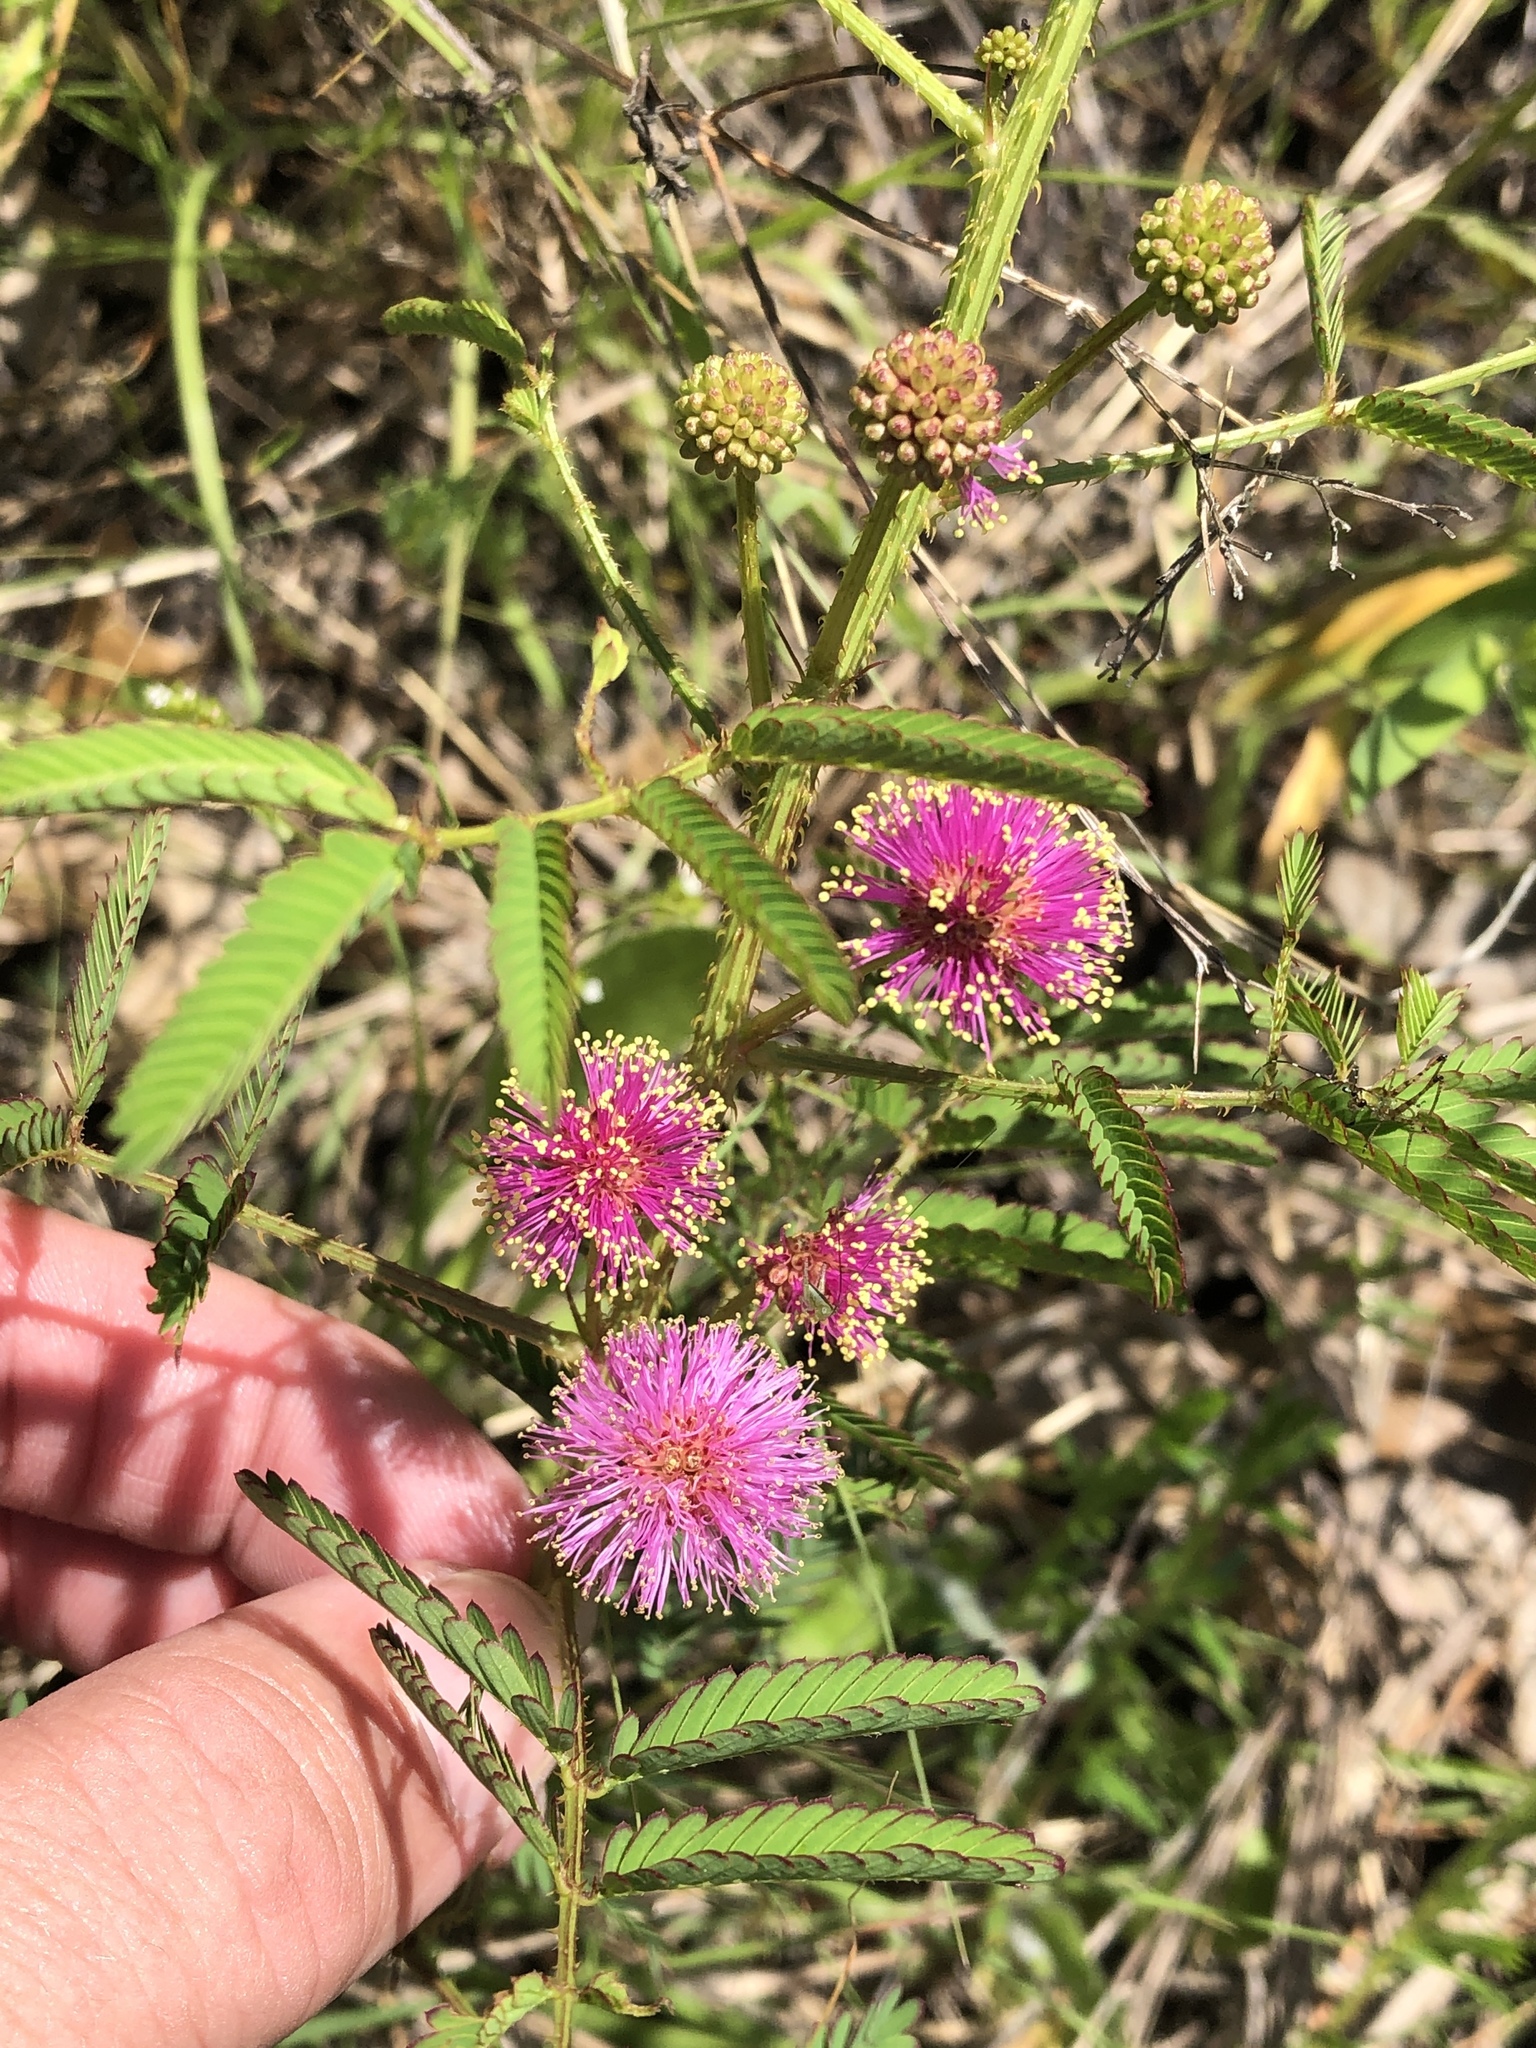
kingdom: Plantae
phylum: Tracheophyta
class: Magnoliopsida
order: Fabales
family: Fabaceae
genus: Mimosa
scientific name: Mimosa quadrivalvis
